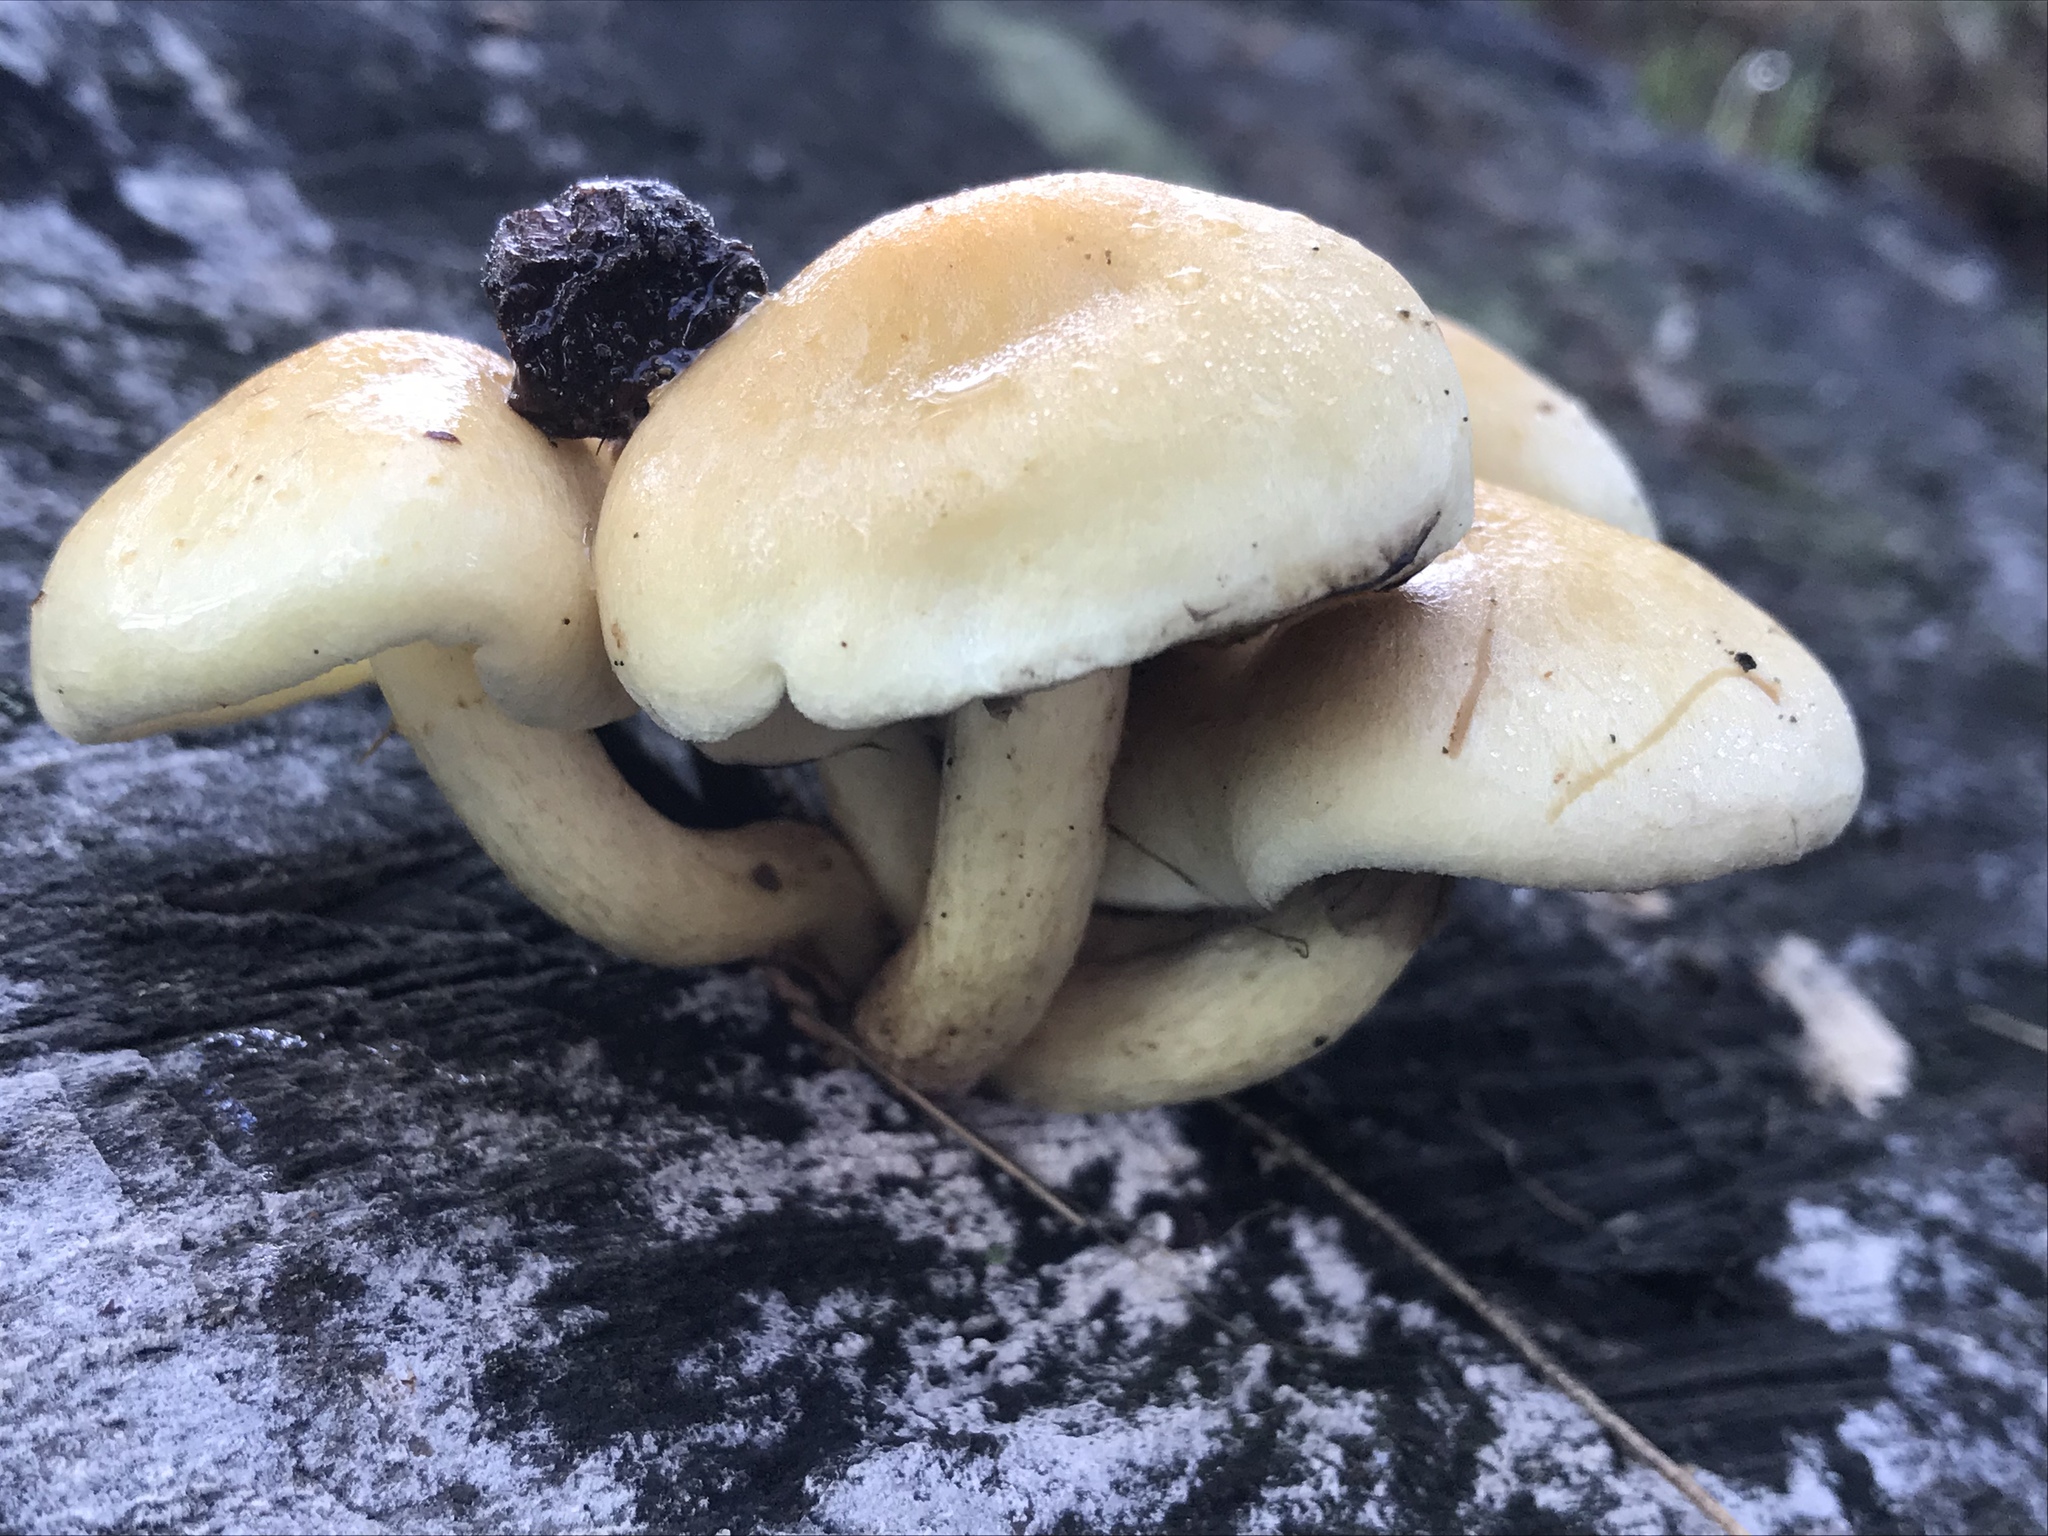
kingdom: Fungi
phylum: Basidiomycota
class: Agaricomycetes
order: Agaricales
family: Strophariaceae
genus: Hypholoma
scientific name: Hypholoma fasciculare
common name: Sulphur tuft
